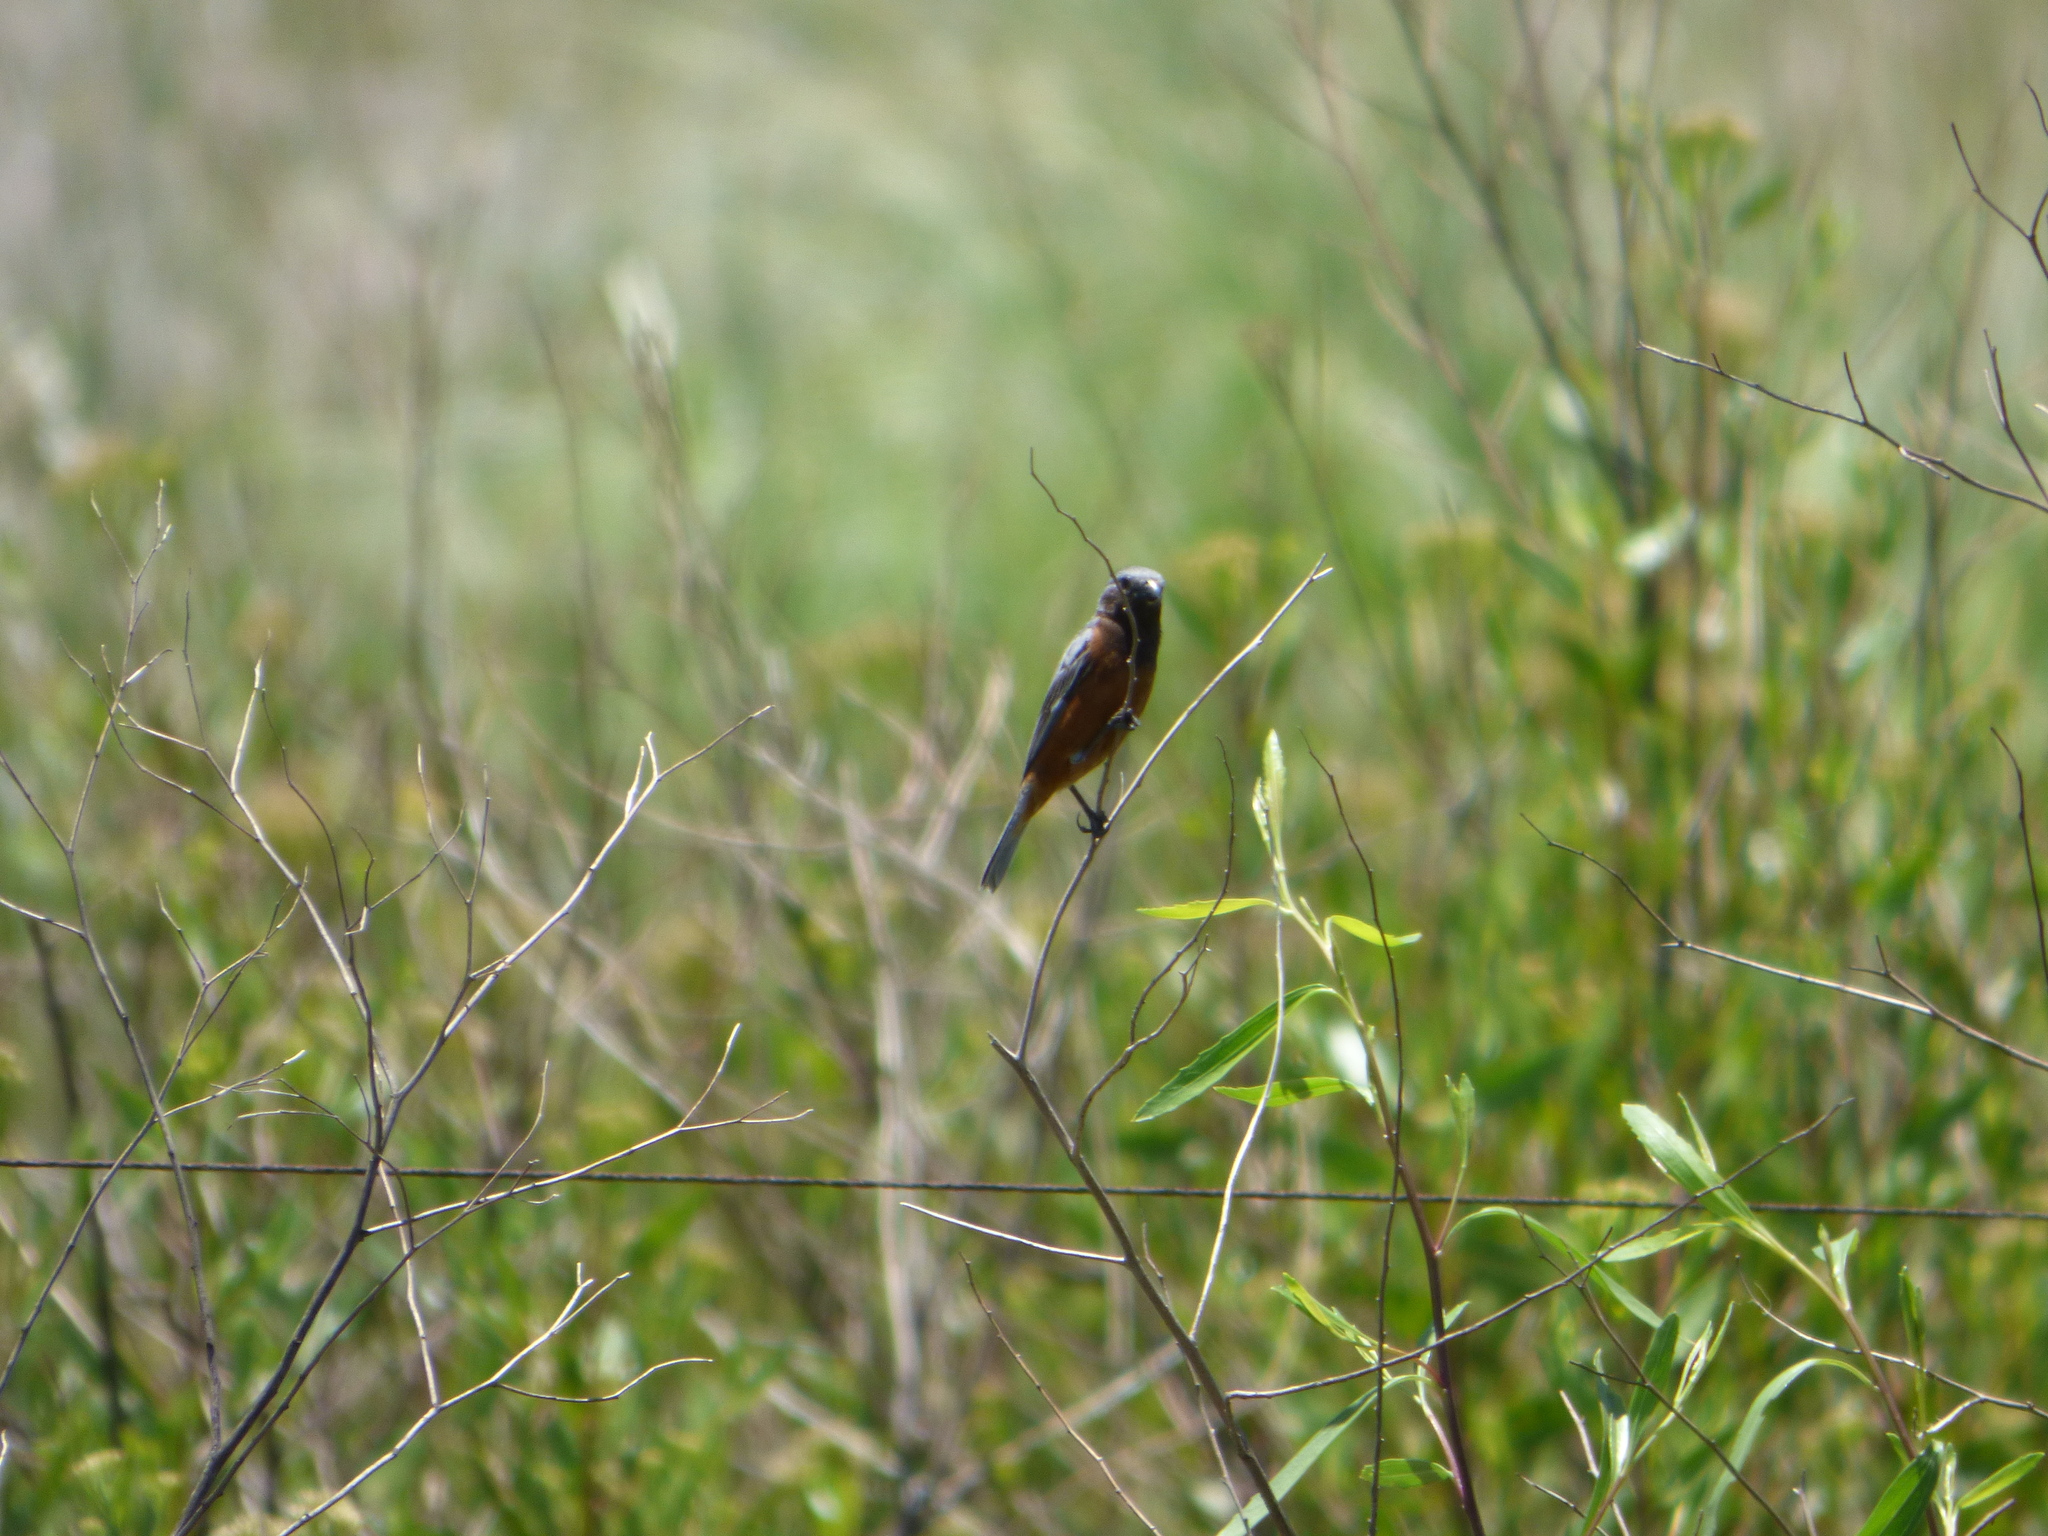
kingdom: Animalia
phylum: Chordata
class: Aves
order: Passeriformes
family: Thraupidae
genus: Sporophila
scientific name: Sporophila ruficollis
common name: Dark-throated seedeater
